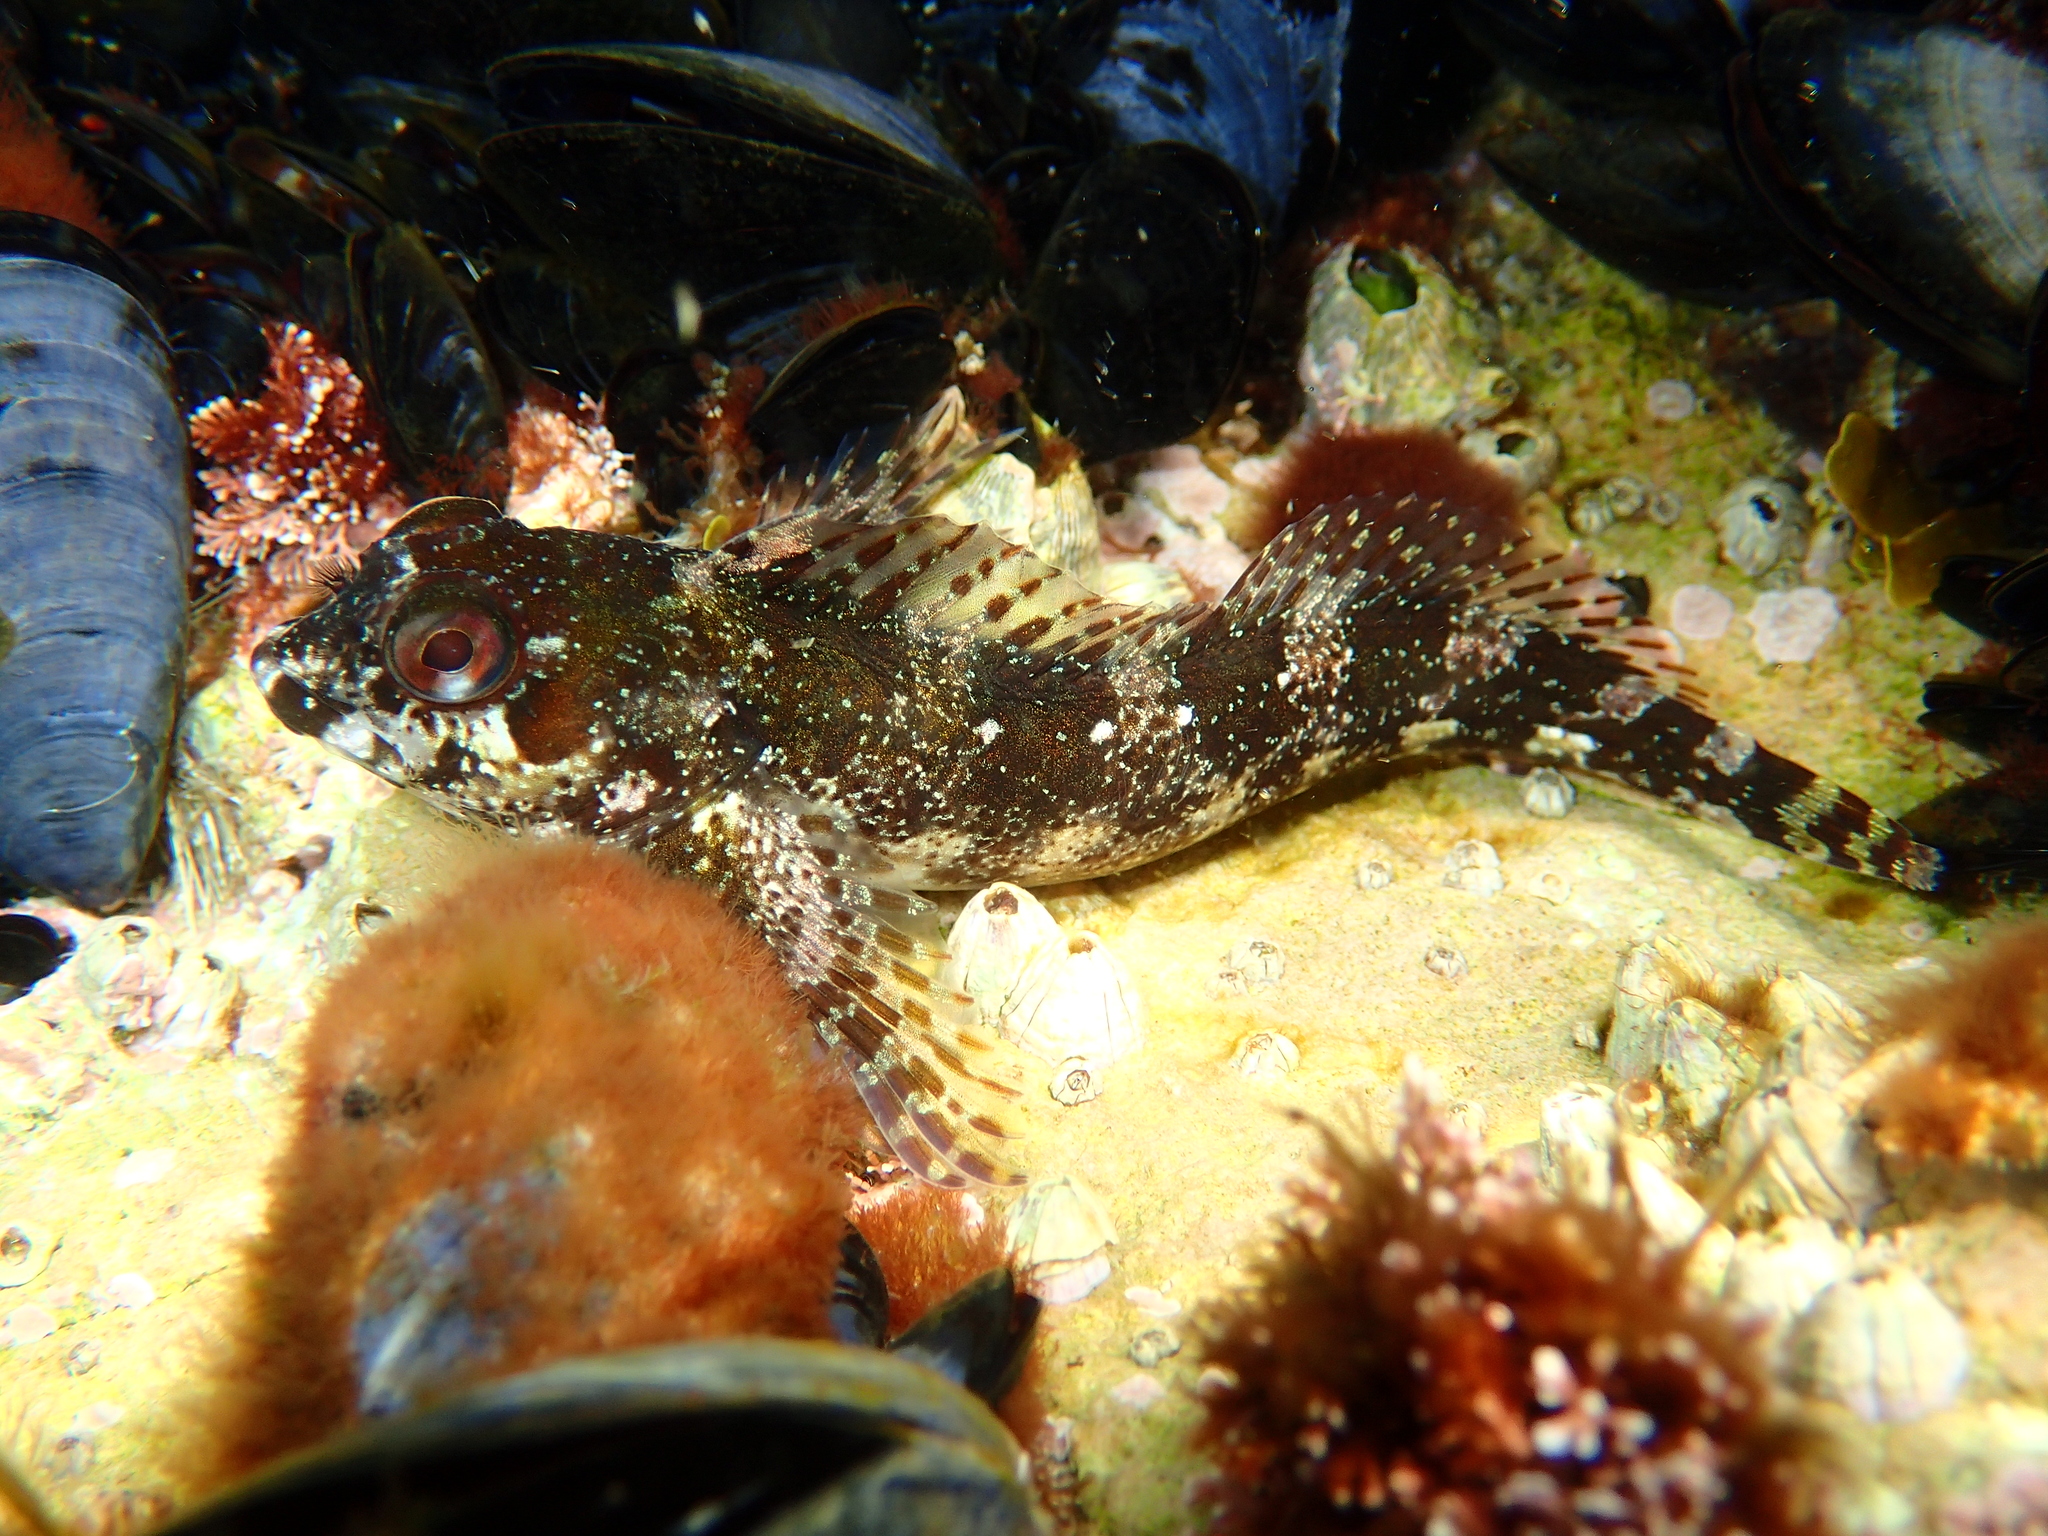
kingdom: Animalia
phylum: Chordata
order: Perciformes
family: Blenniidae
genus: Lipophrys
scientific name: Lipophrys trigloides
